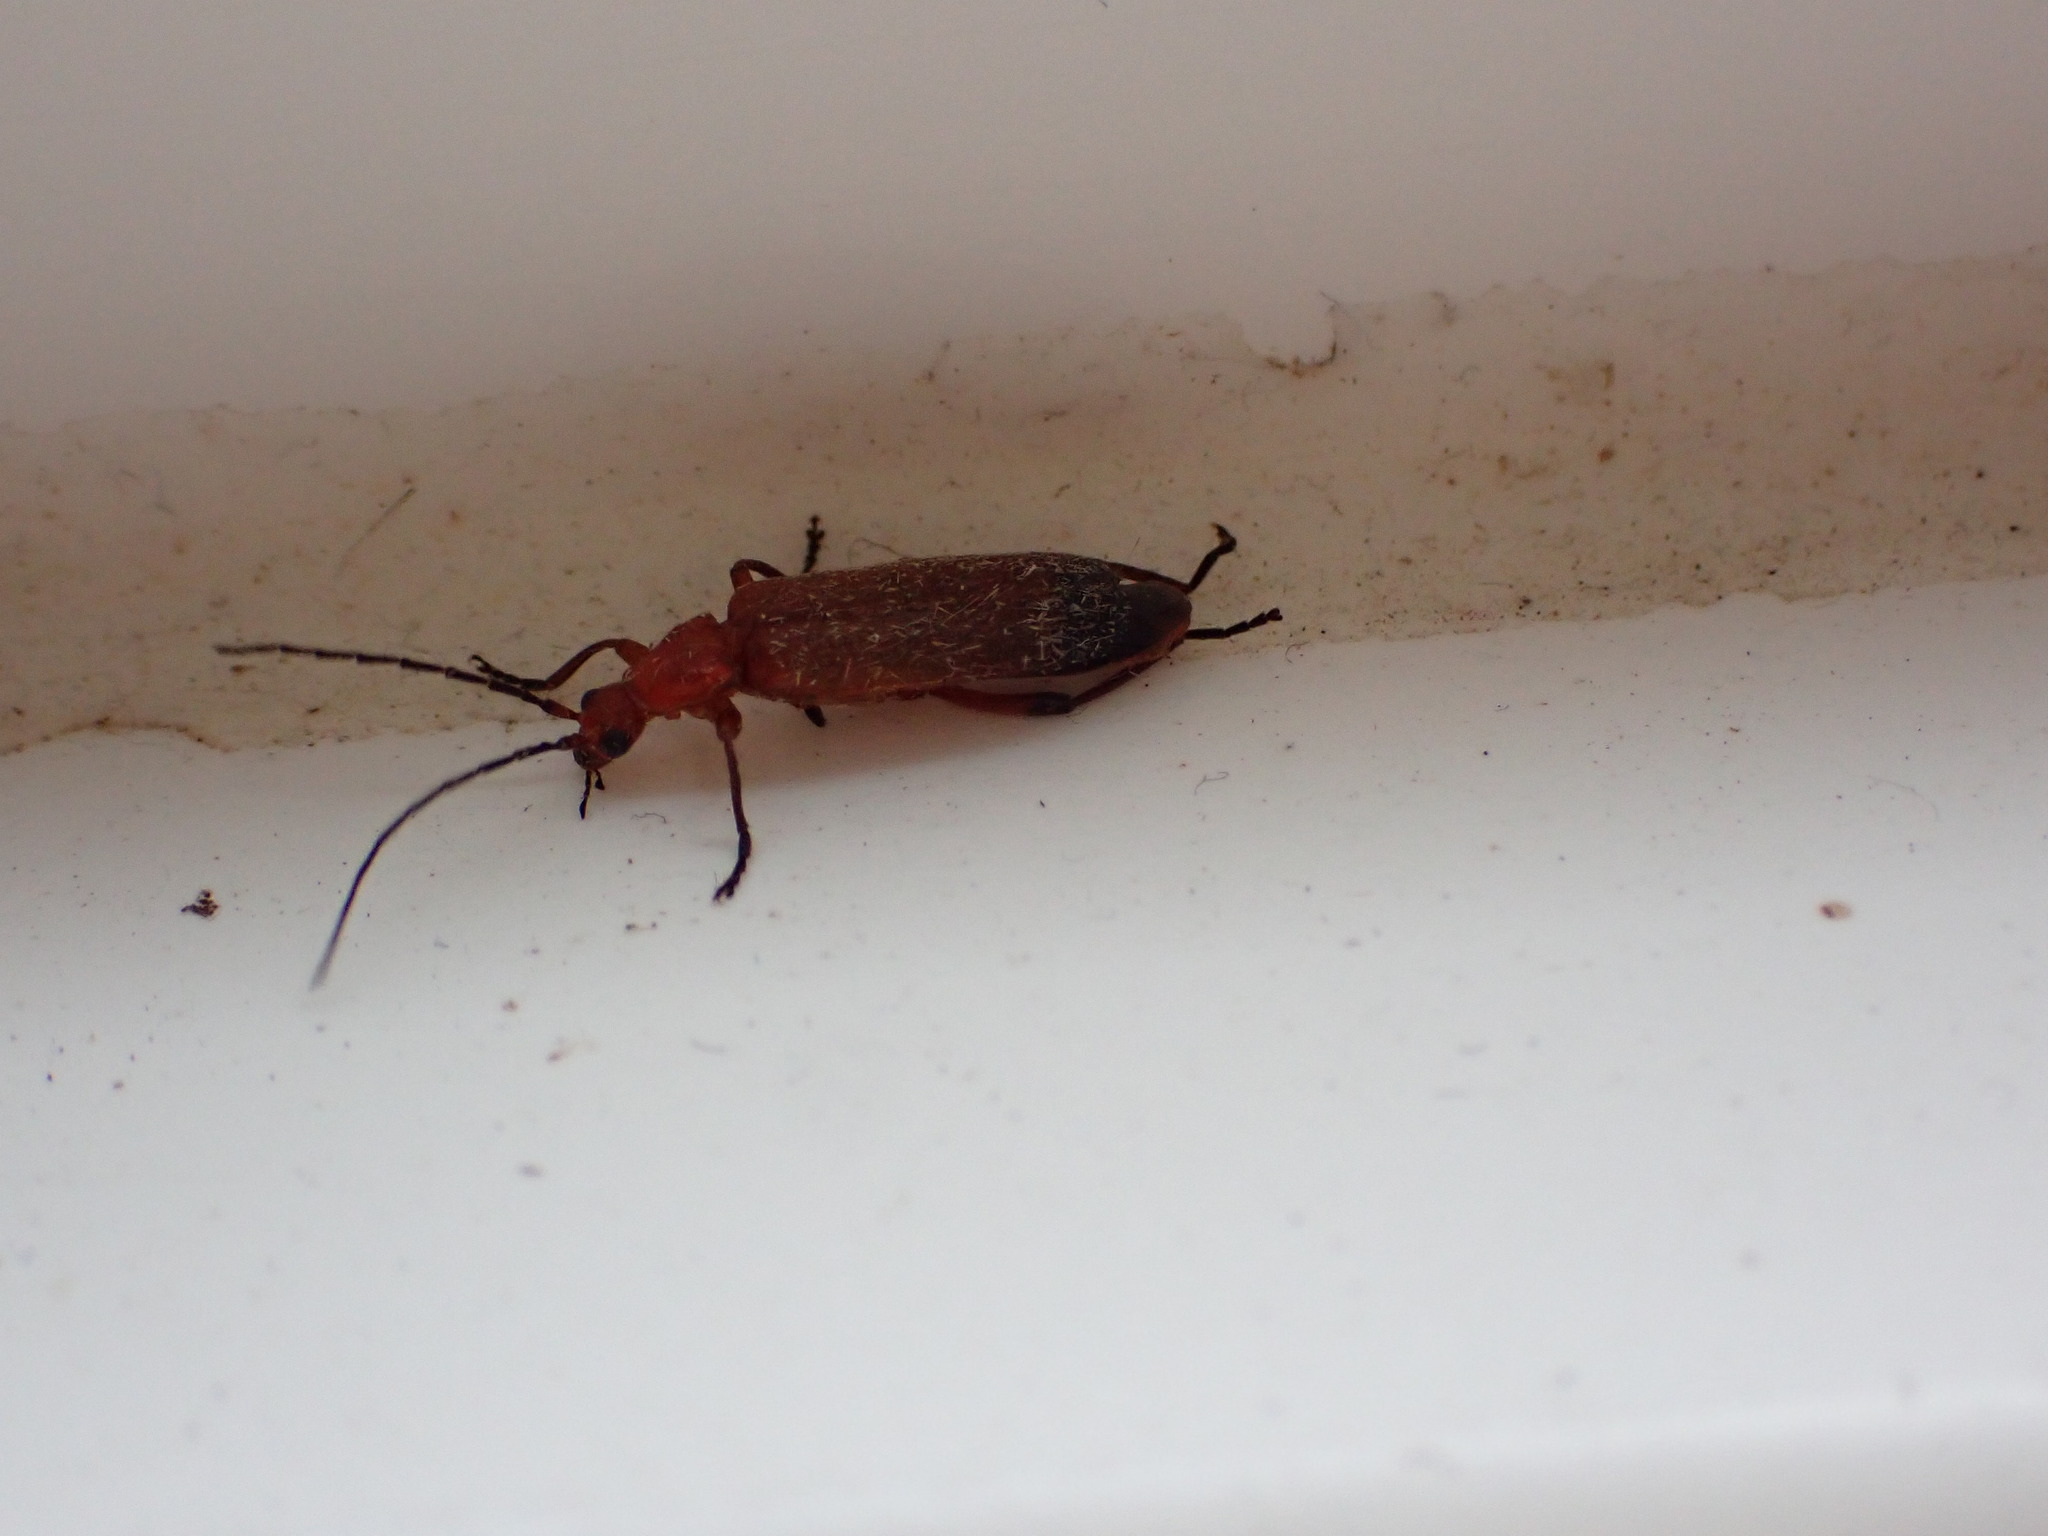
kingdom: Animalia
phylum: Arthropoda
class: Insecta
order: Coleoptera
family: Cantharidae
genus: Rhagonycha
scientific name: Rhagonycha fulva
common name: Common red soldier beetle
